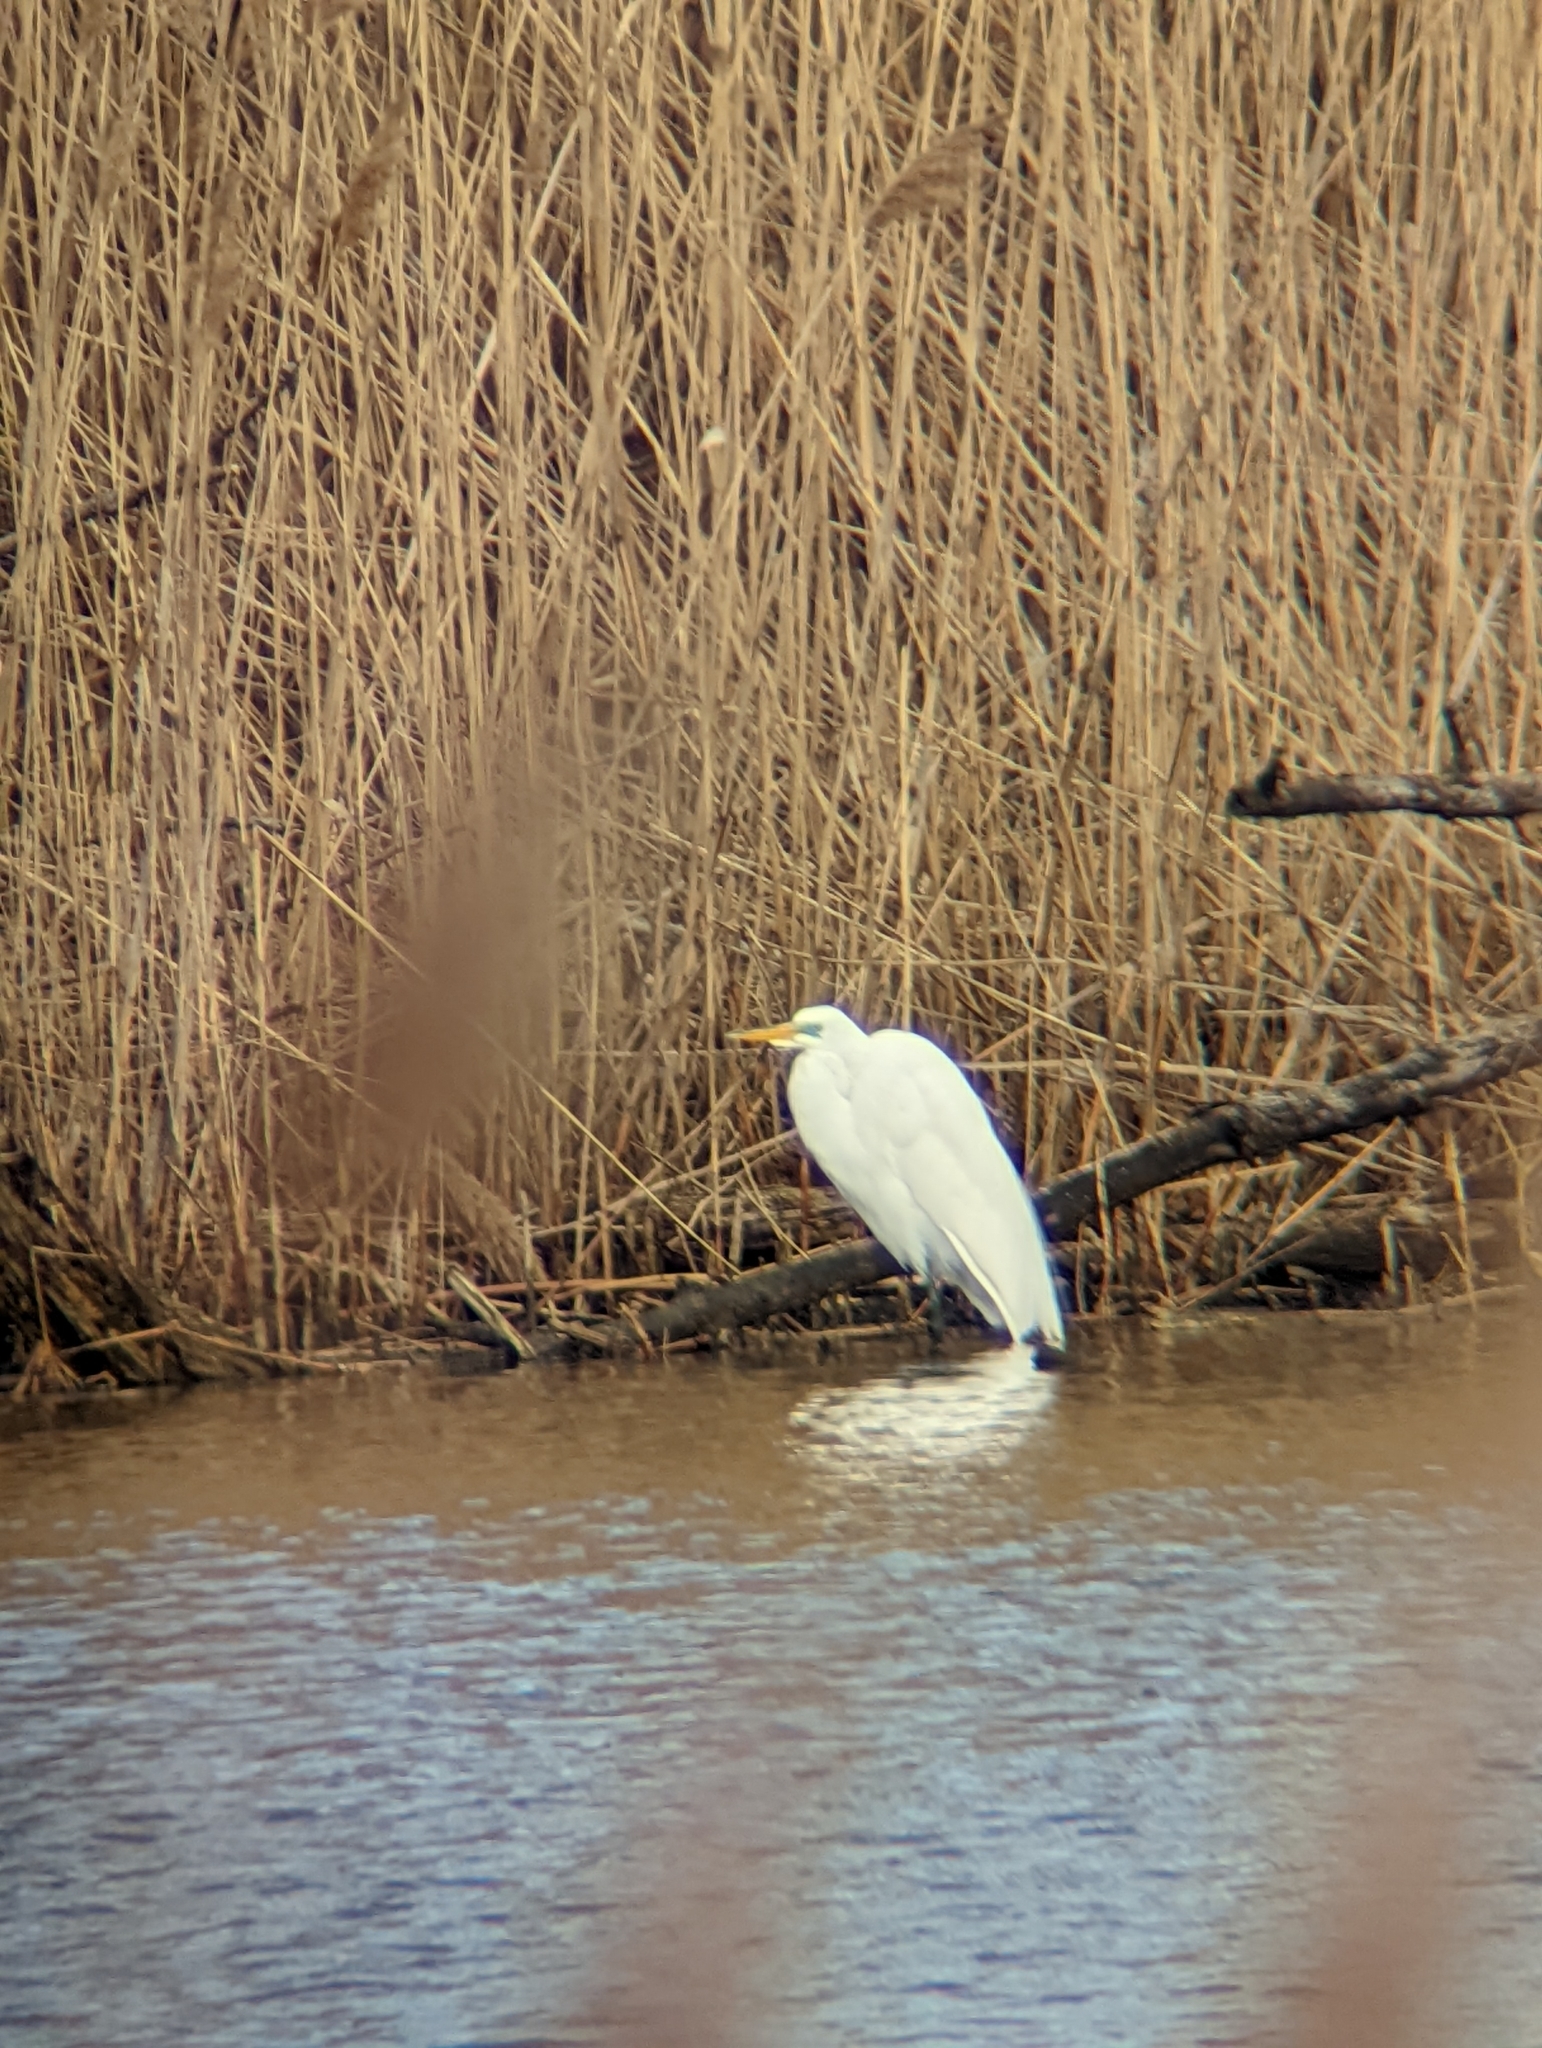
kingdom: Animalia
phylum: Chordata
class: Aves
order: Pelecaniformes
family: Ardeidae
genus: Ardea
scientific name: Ardea alba
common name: Great egret
